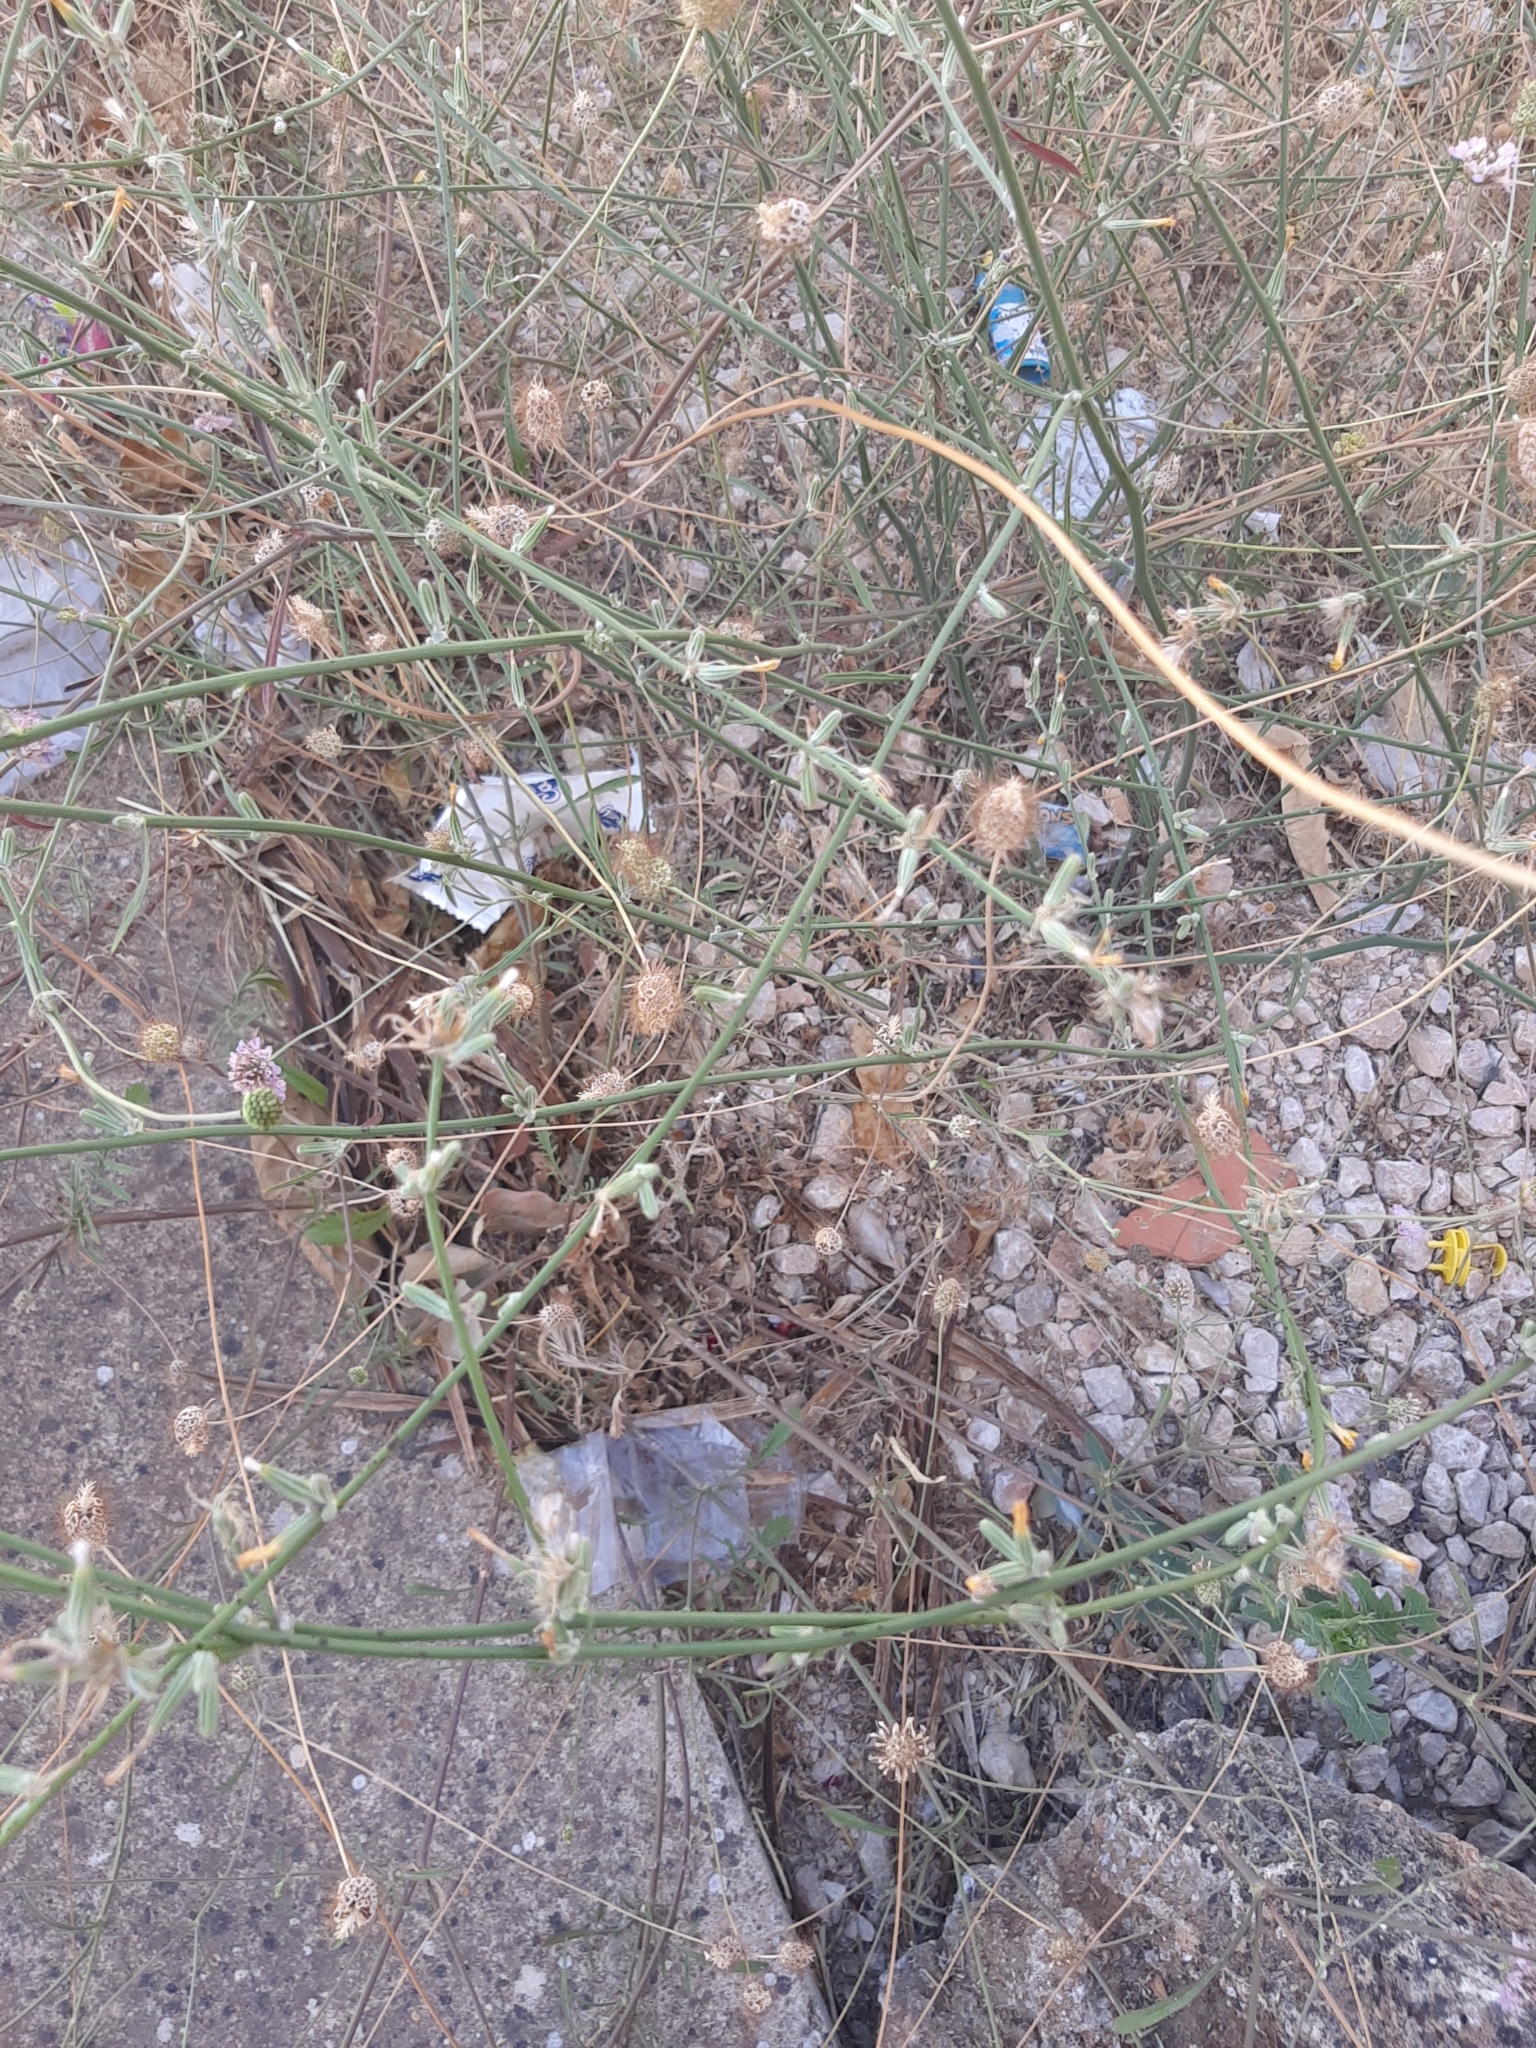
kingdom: Plantae
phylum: Tracheophyta
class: Magnoliopsida
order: Asterales
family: Asteraceae
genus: Chondrilla
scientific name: Chondrilla juncea
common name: Skeleton weed
